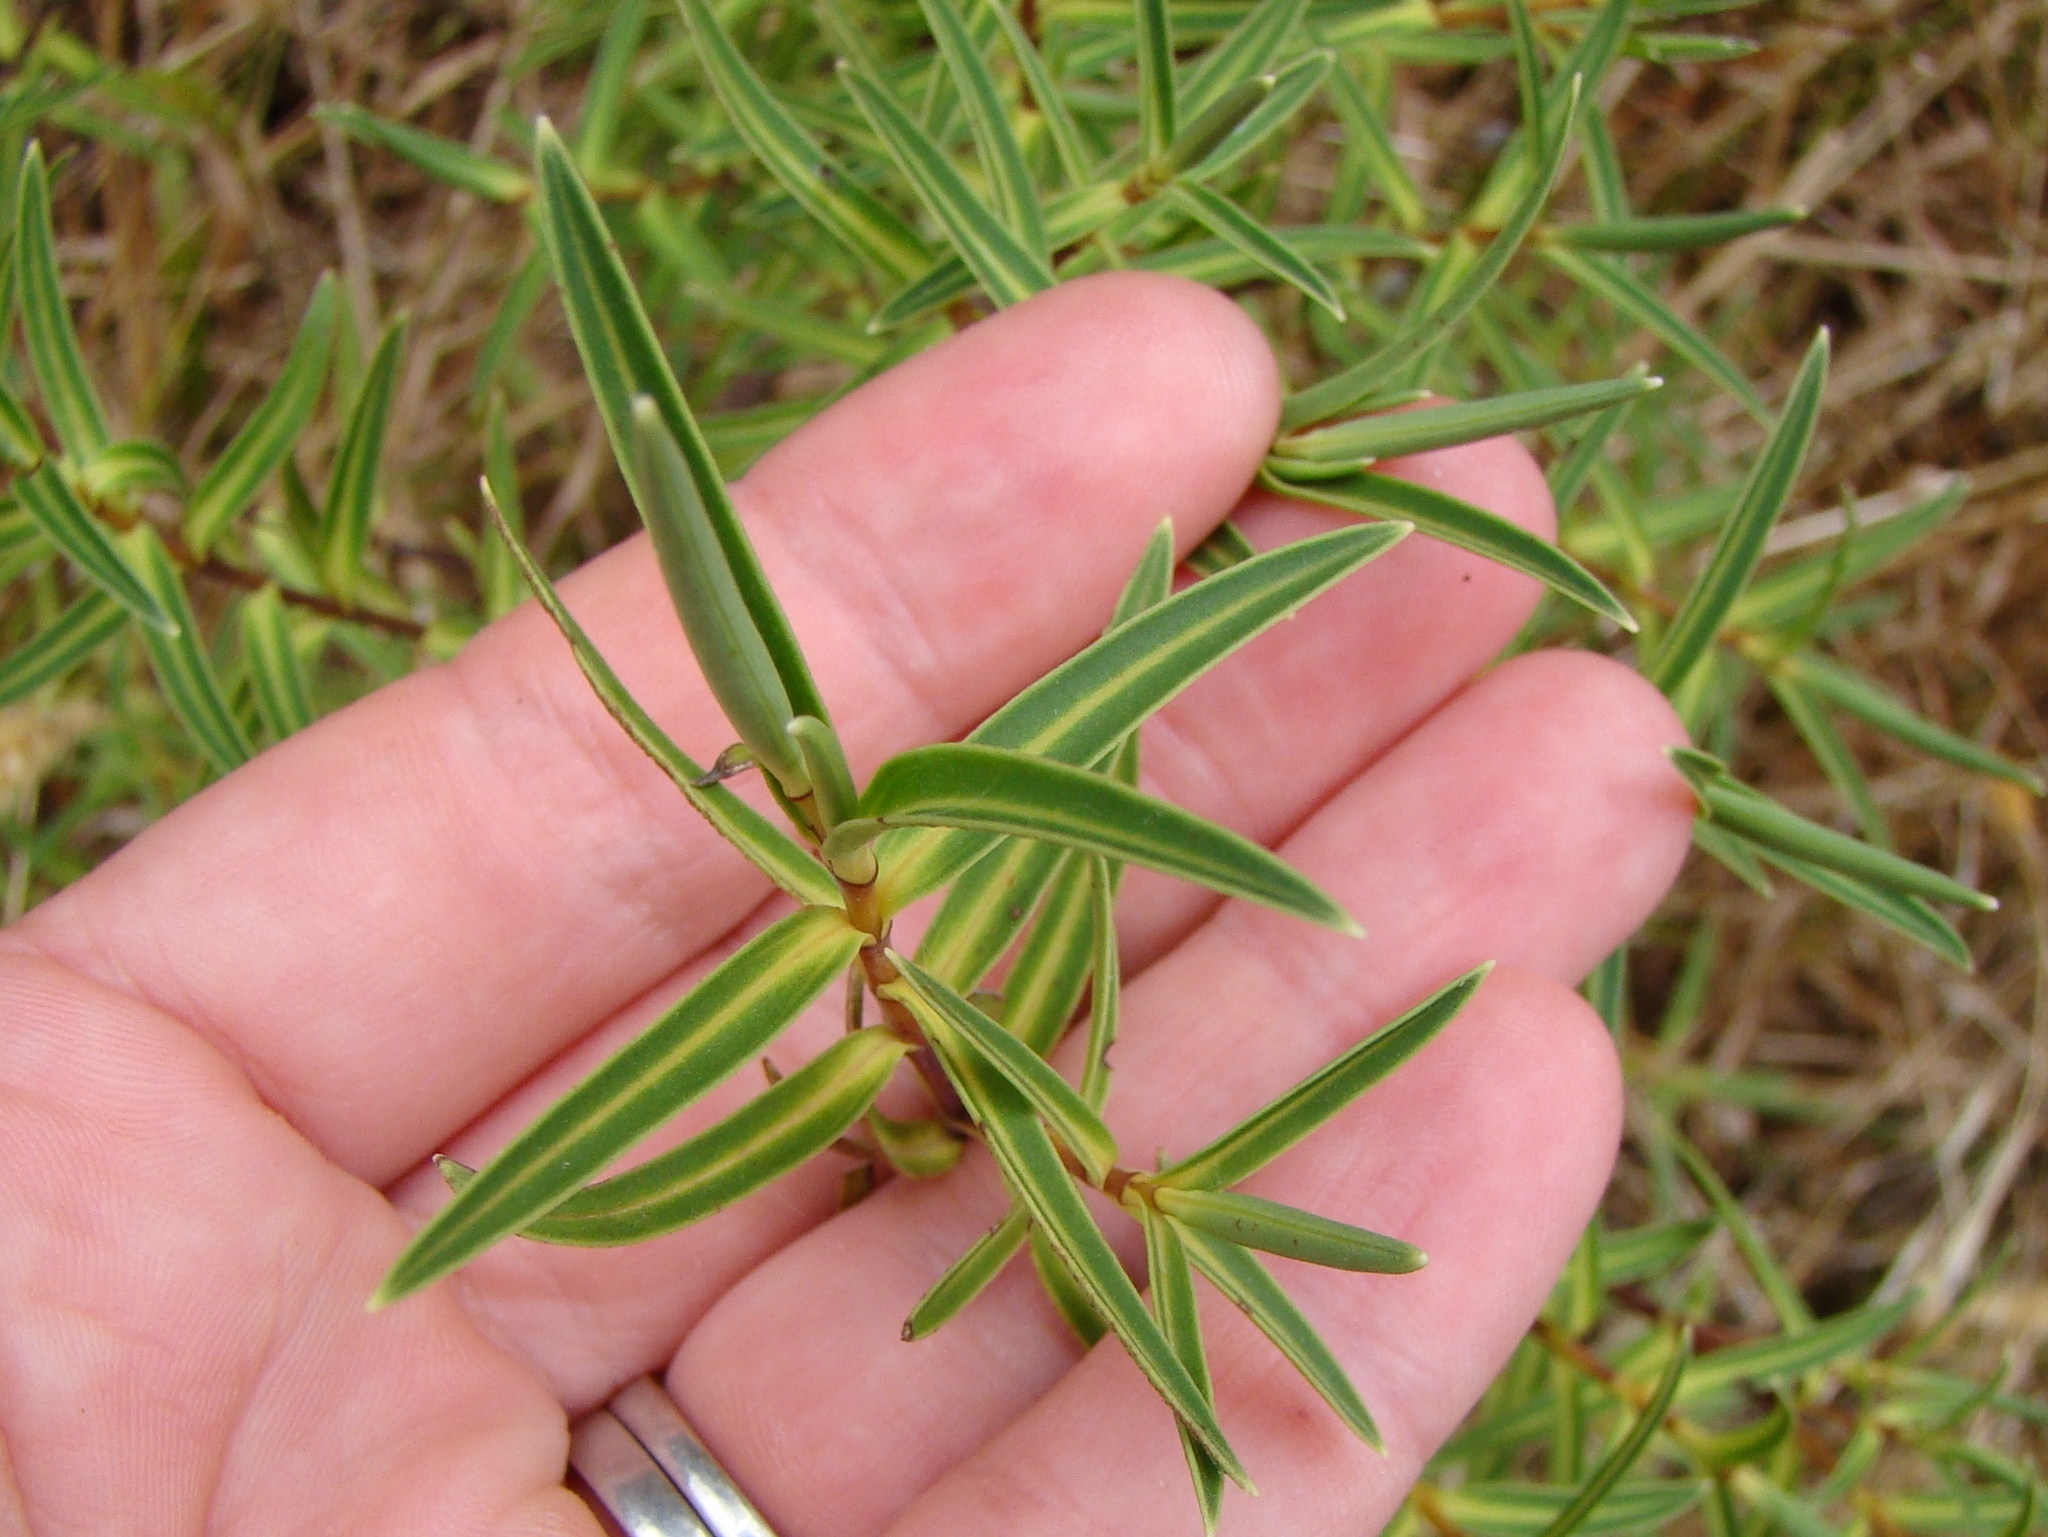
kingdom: Plantae
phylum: Tracheophyta
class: Magnoliopsida
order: Lamiales
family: Plantaginaceae
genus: Veronica
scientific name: Veronica parviflora
